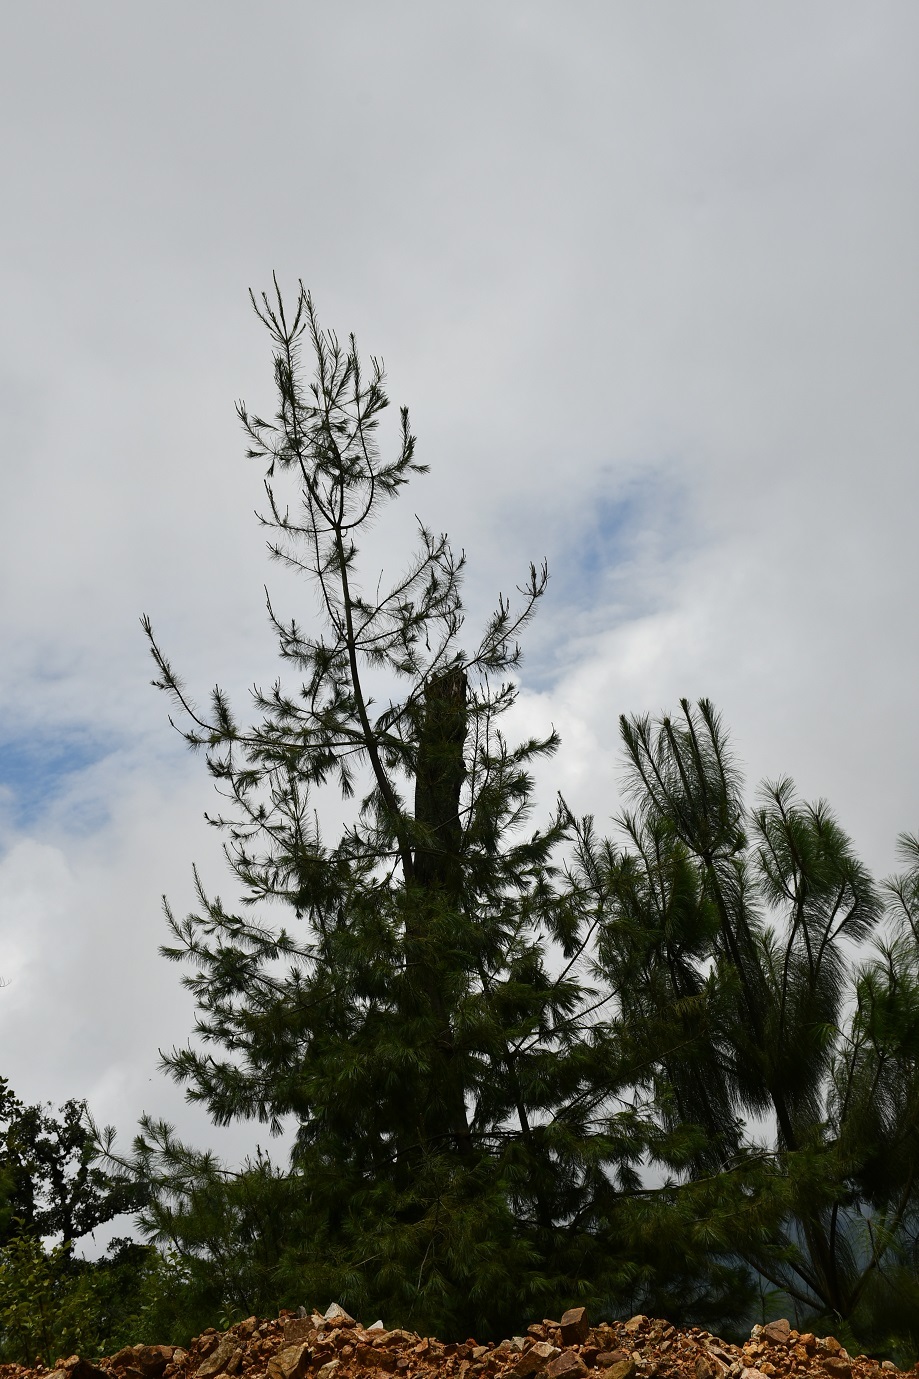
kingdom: Plantae
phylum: Tracheophyta
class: Pinopsida
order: Pinales
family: Pinaceae
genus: Pinus
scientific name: Pinus strobus
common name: Weymouth pine
